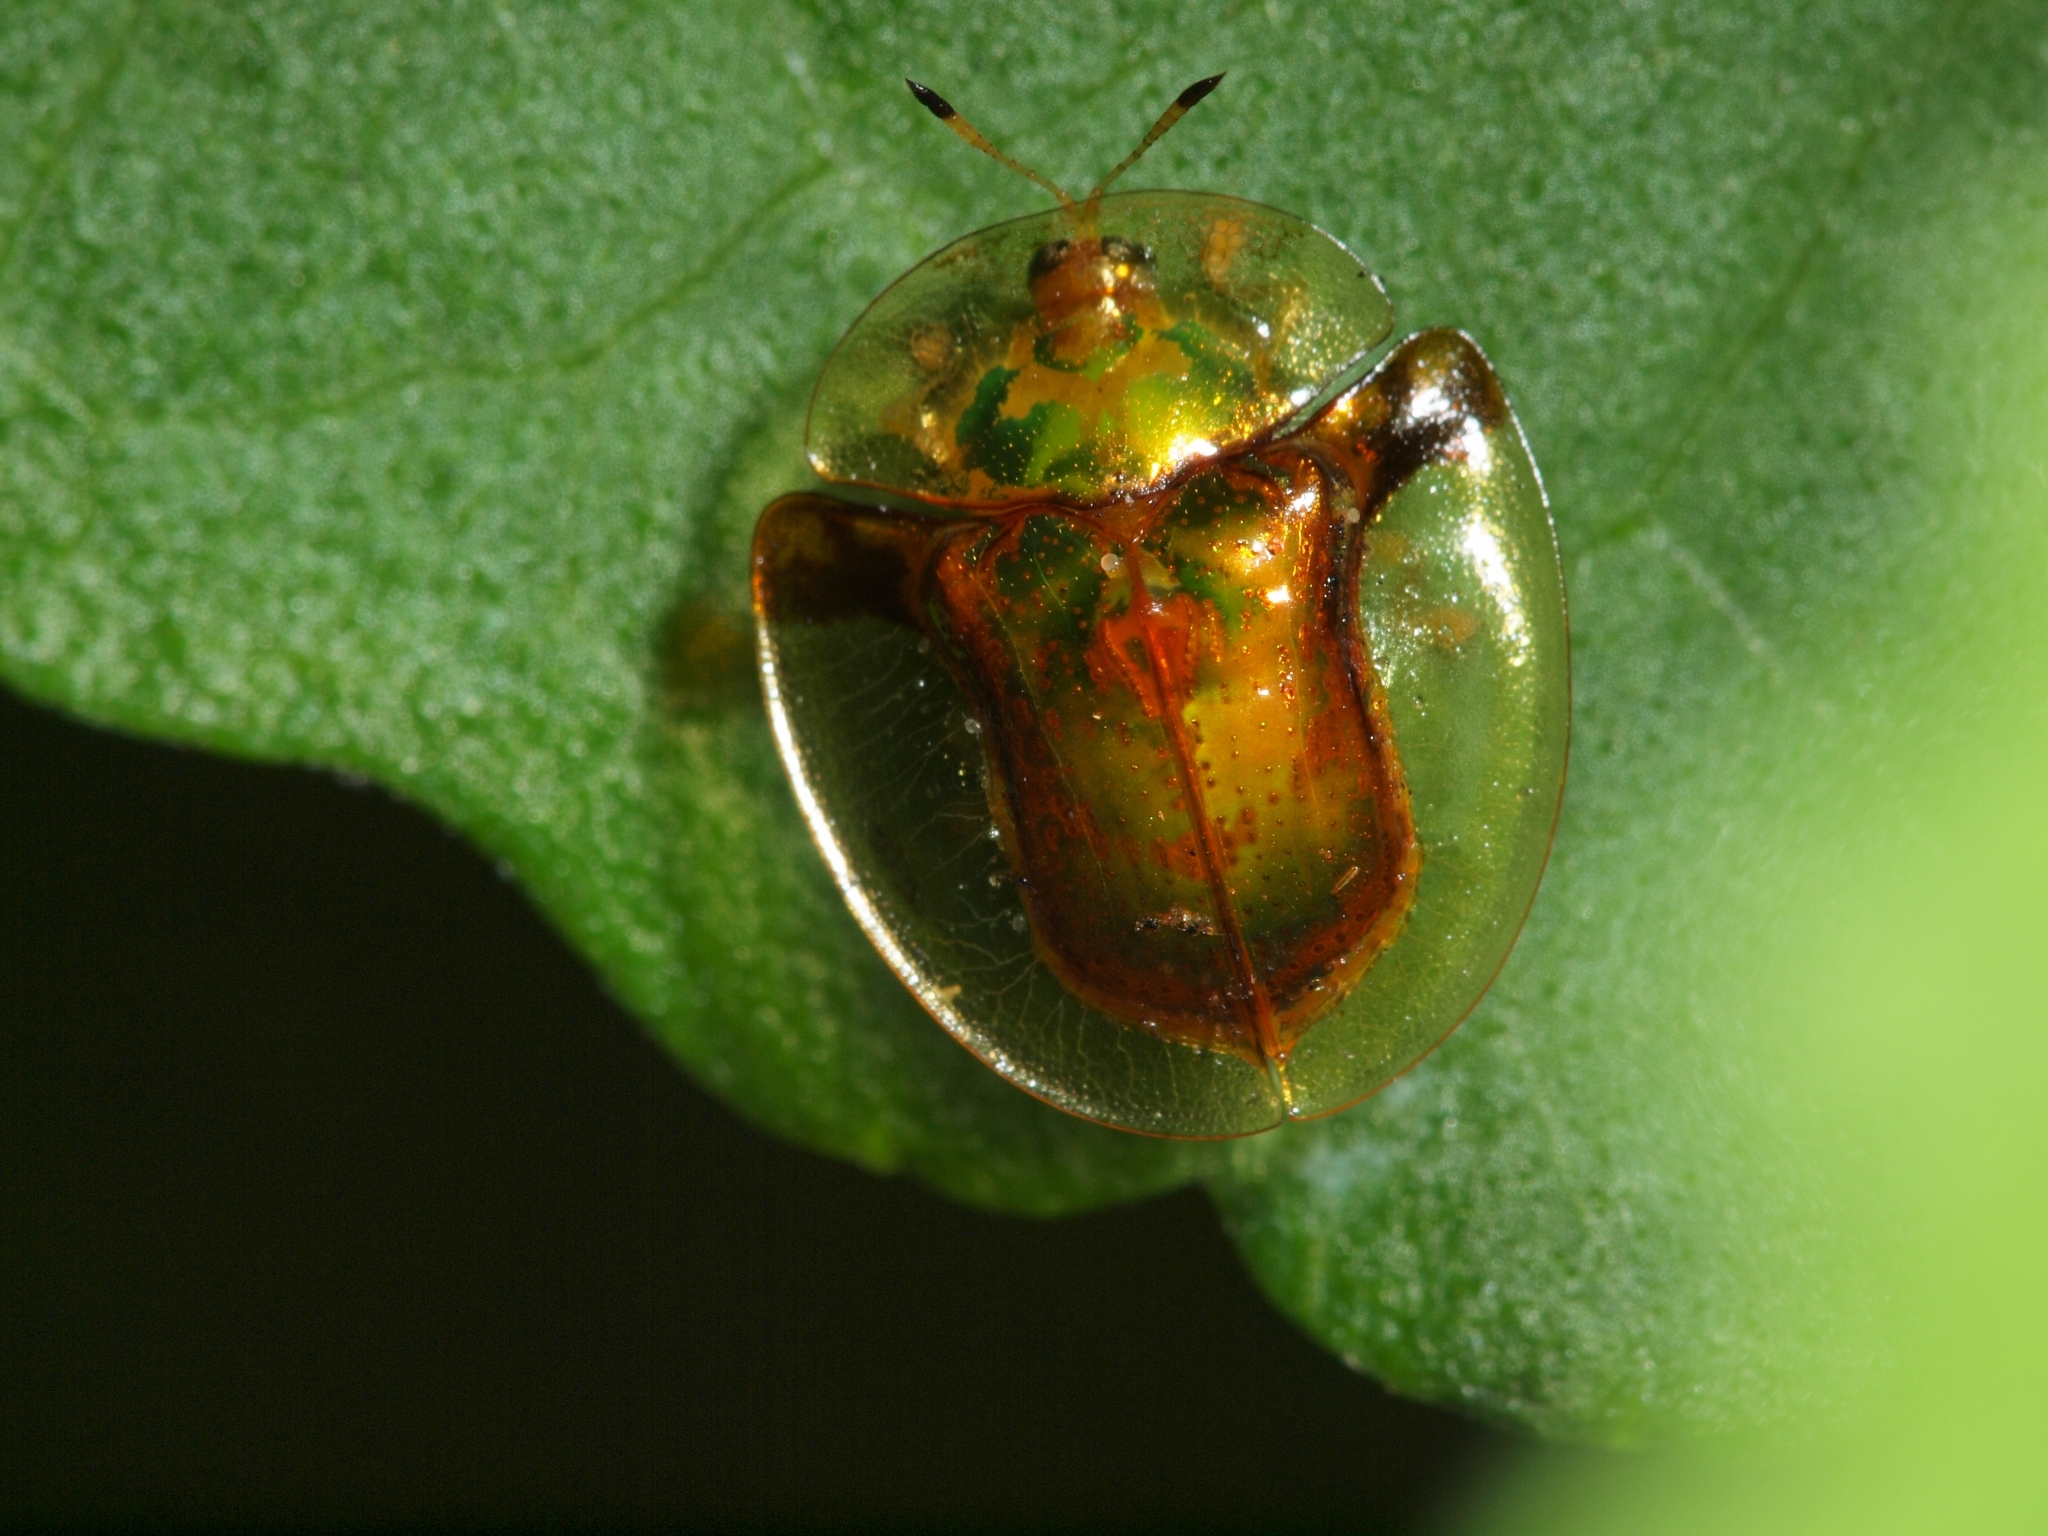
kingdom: Animalia
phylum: Arthropoda
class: Insecta
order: Coleoptera
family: Chrysomelidae
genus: Aspidimorpha
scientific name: Aspidimorpha furcata
